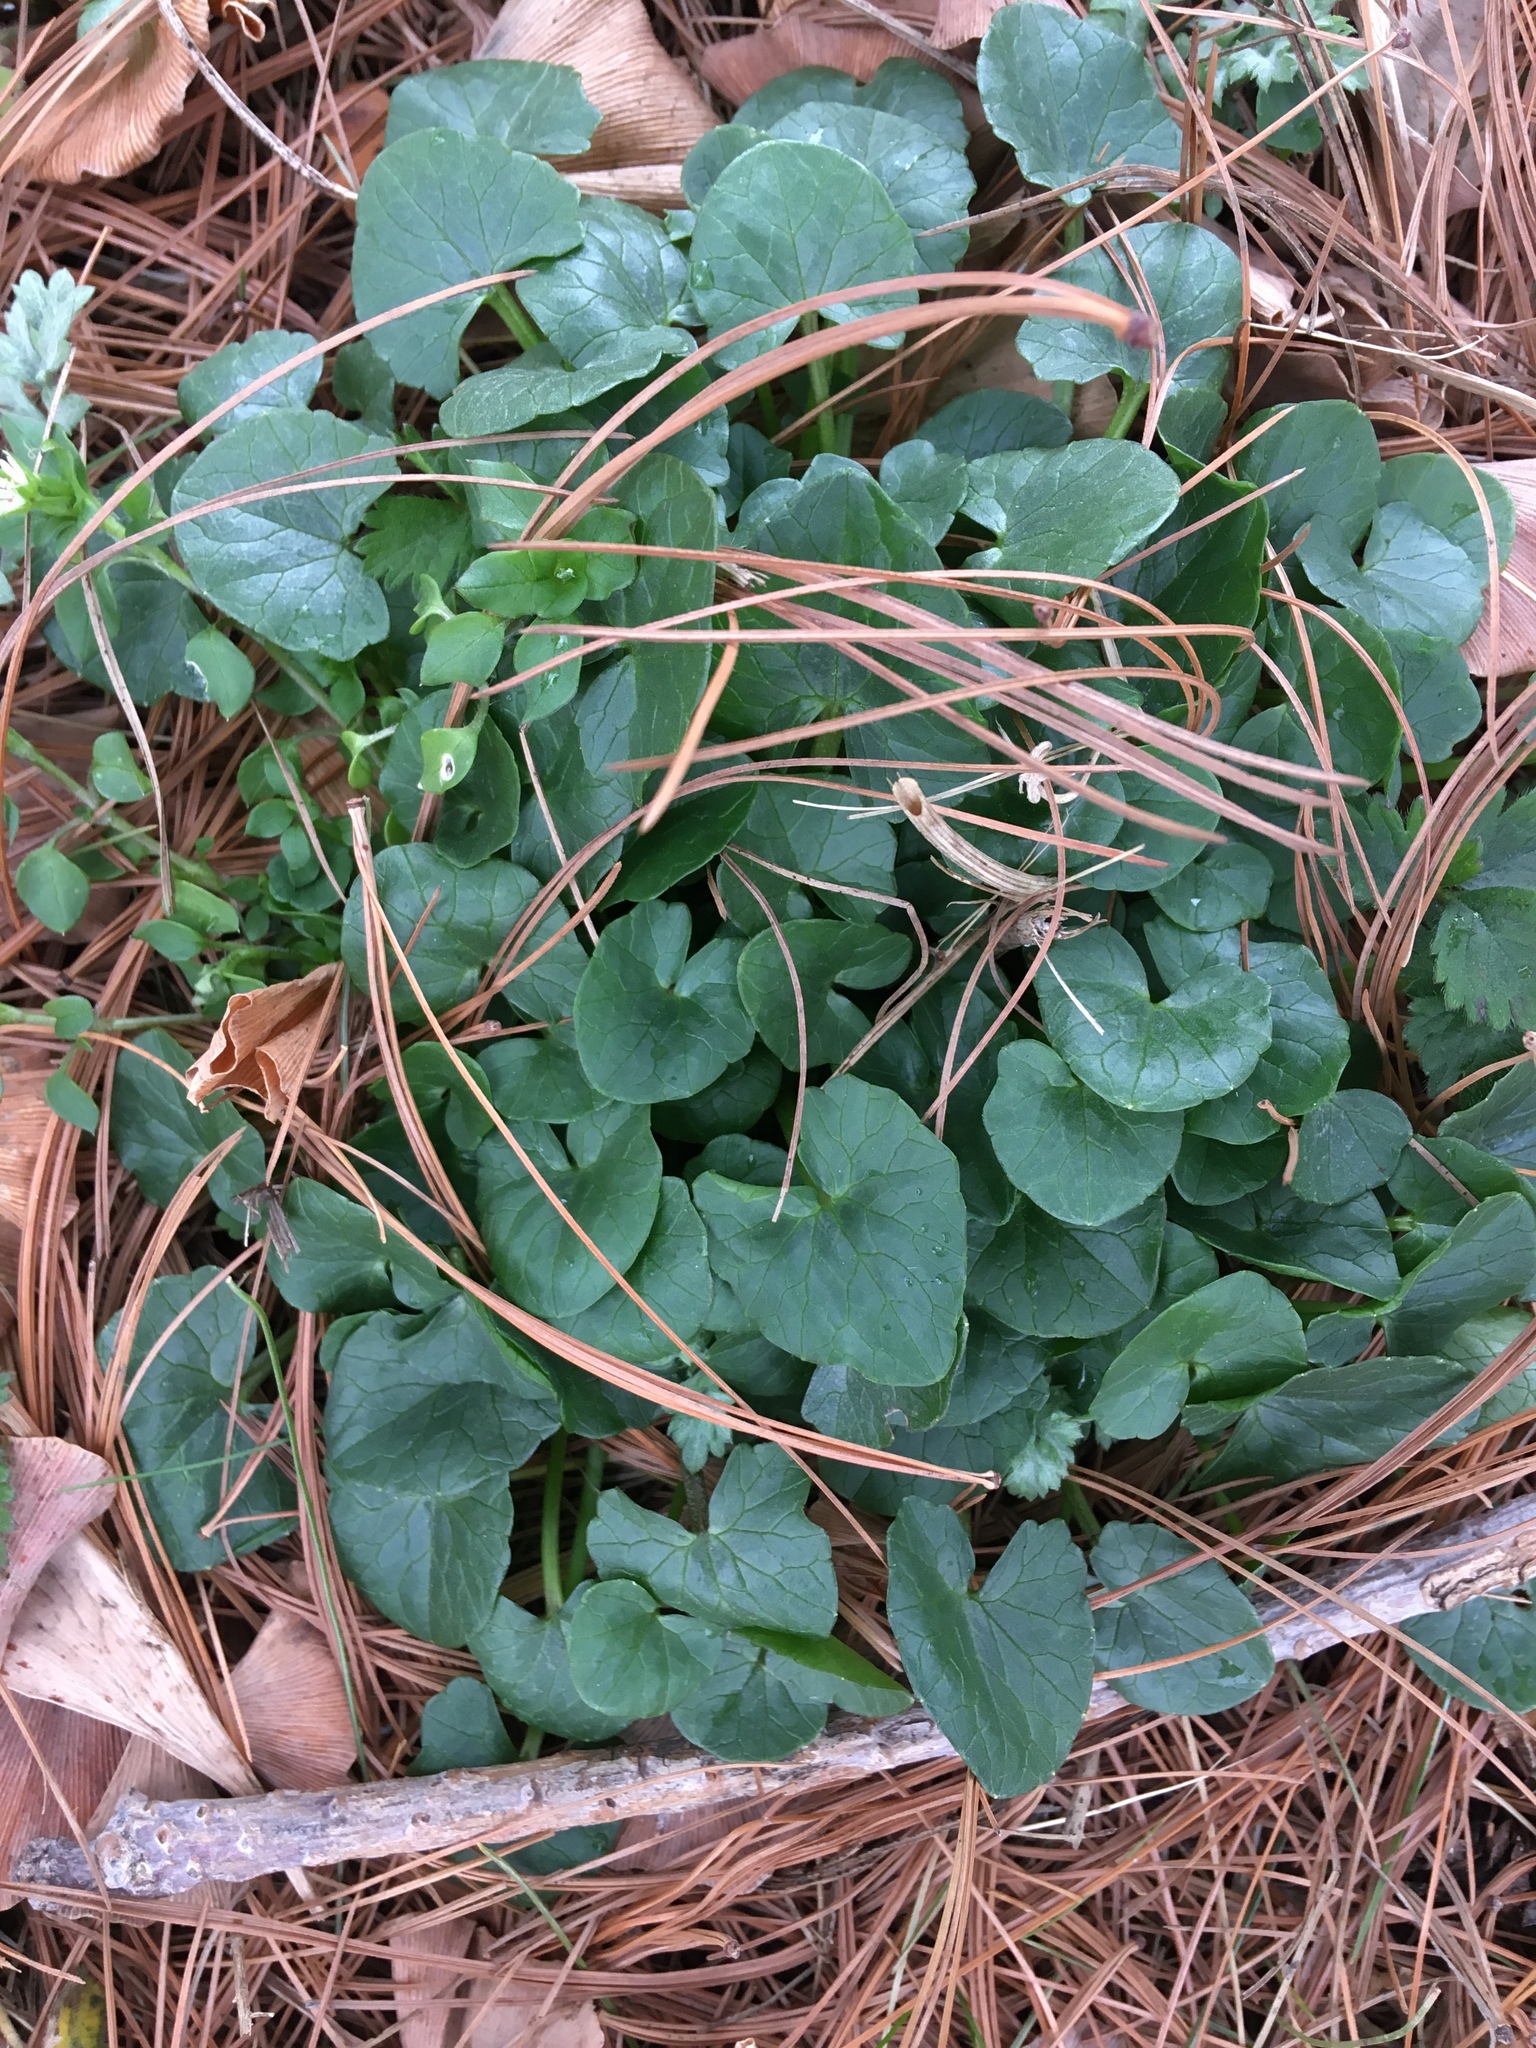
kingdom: Plantae
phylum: Tracheophyta
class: Magnoliopsida
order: Ranunculales
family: Ranunculaceae
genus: Ficaria
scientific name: Ficaria verna
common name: Lesser celandine
